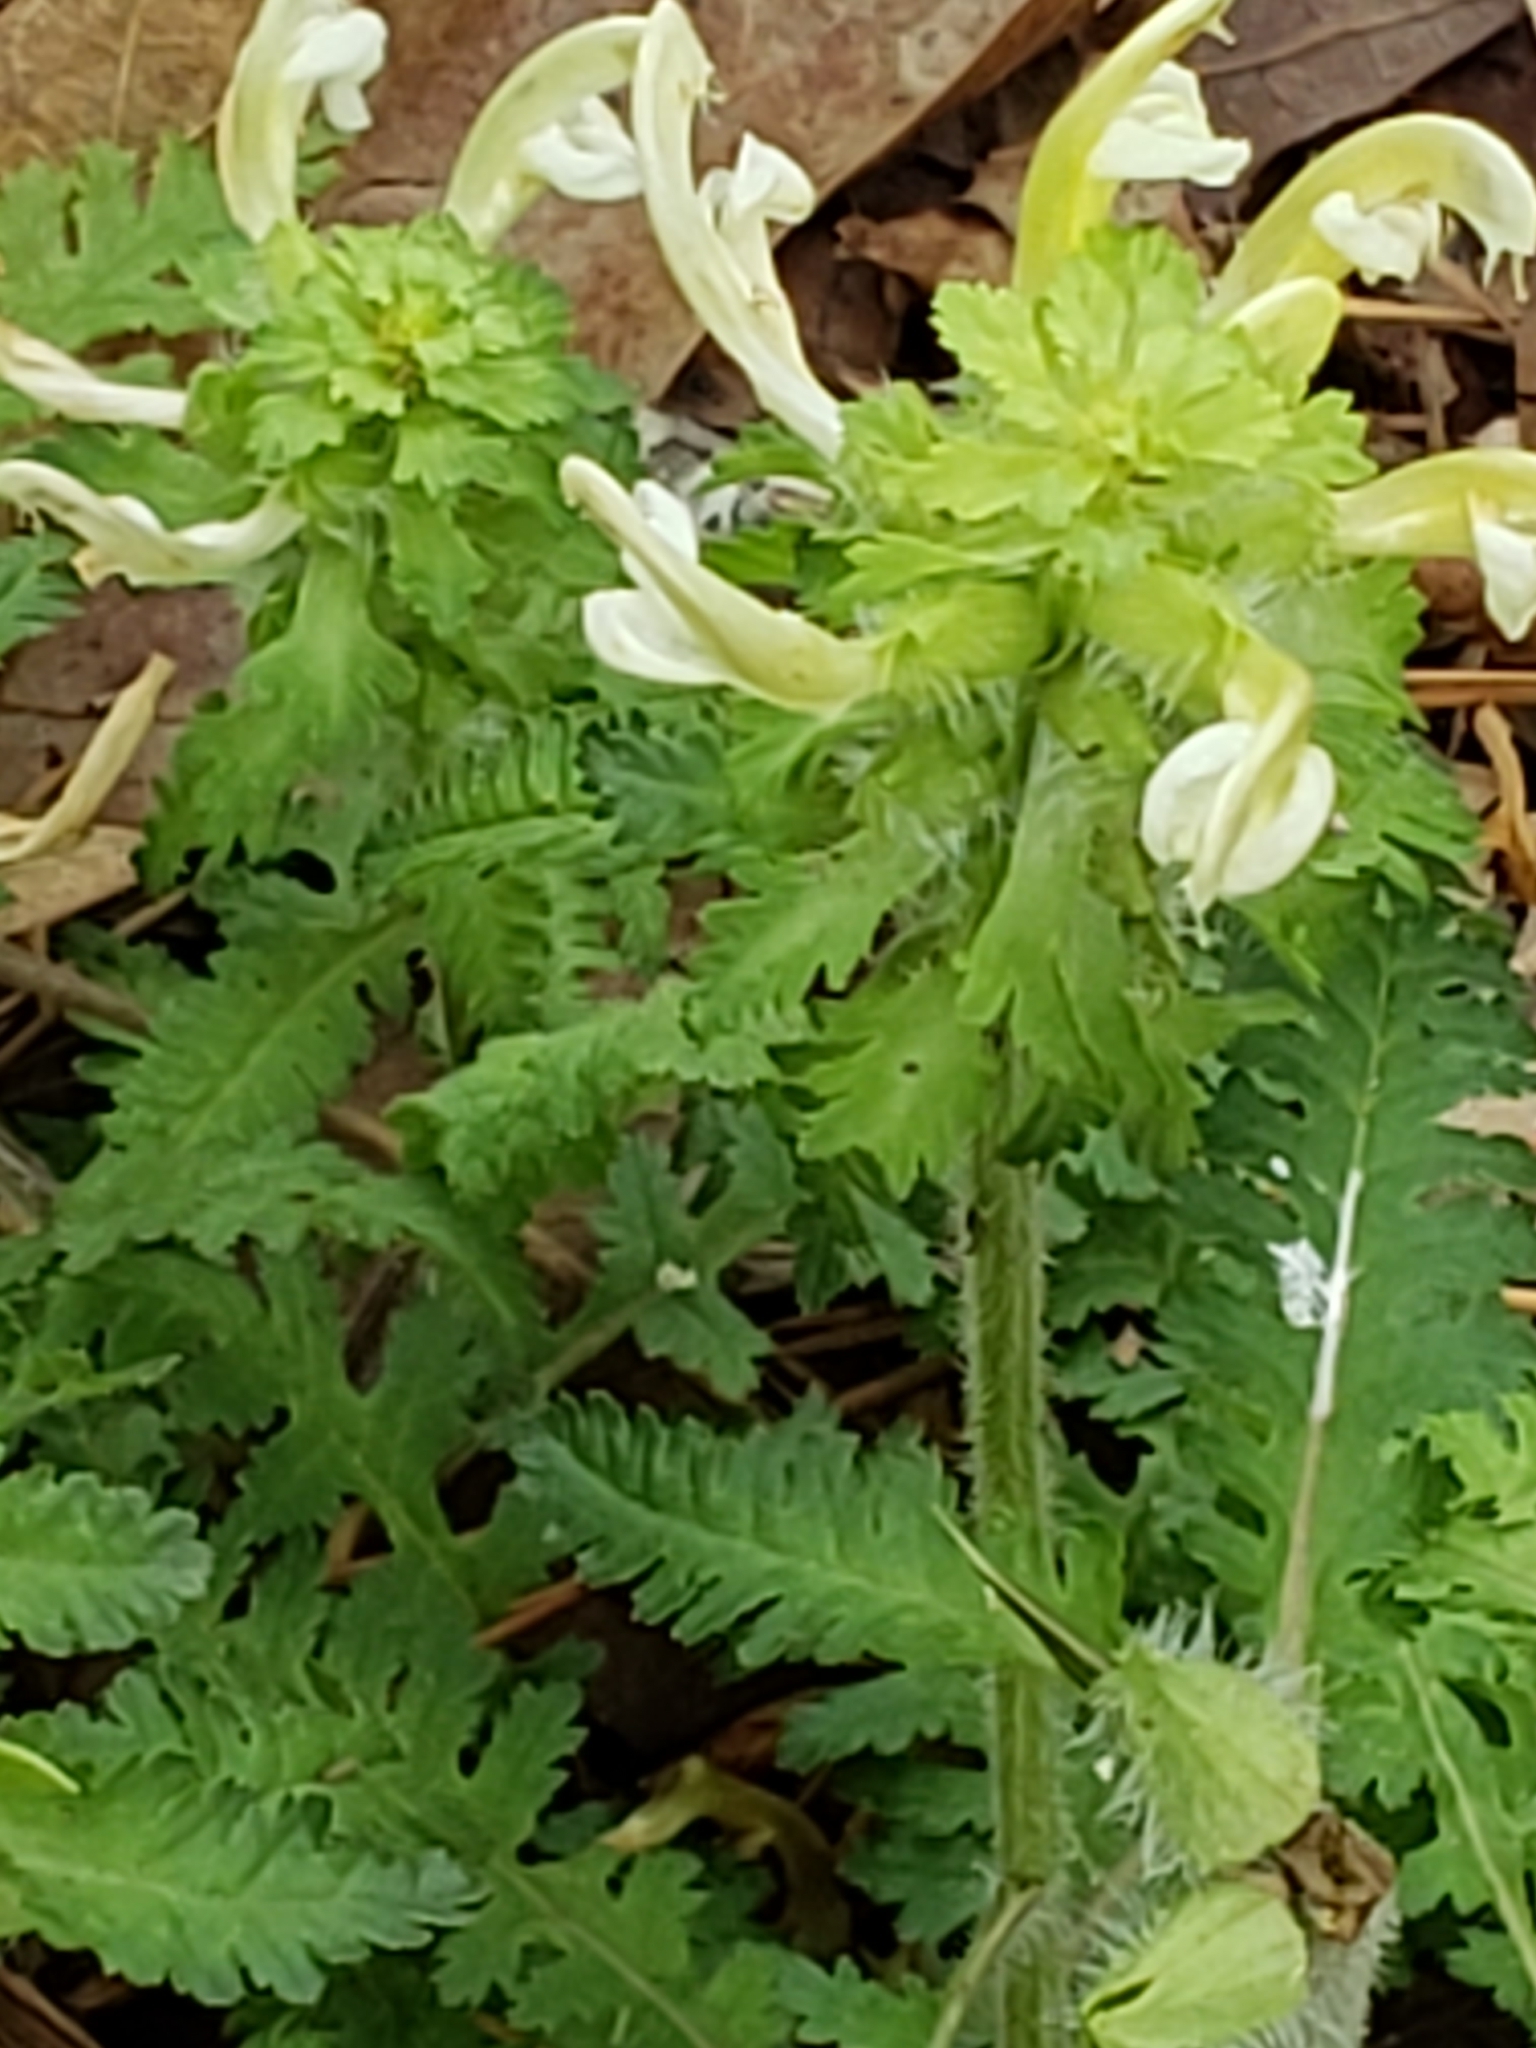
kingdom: Plantae
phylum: Tracheophyta
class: Magnoliopsida
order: Lamiales
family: Orobanchaceae
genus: Pedicularis
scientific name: Pedicularis canadensis
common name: Early lousewort
